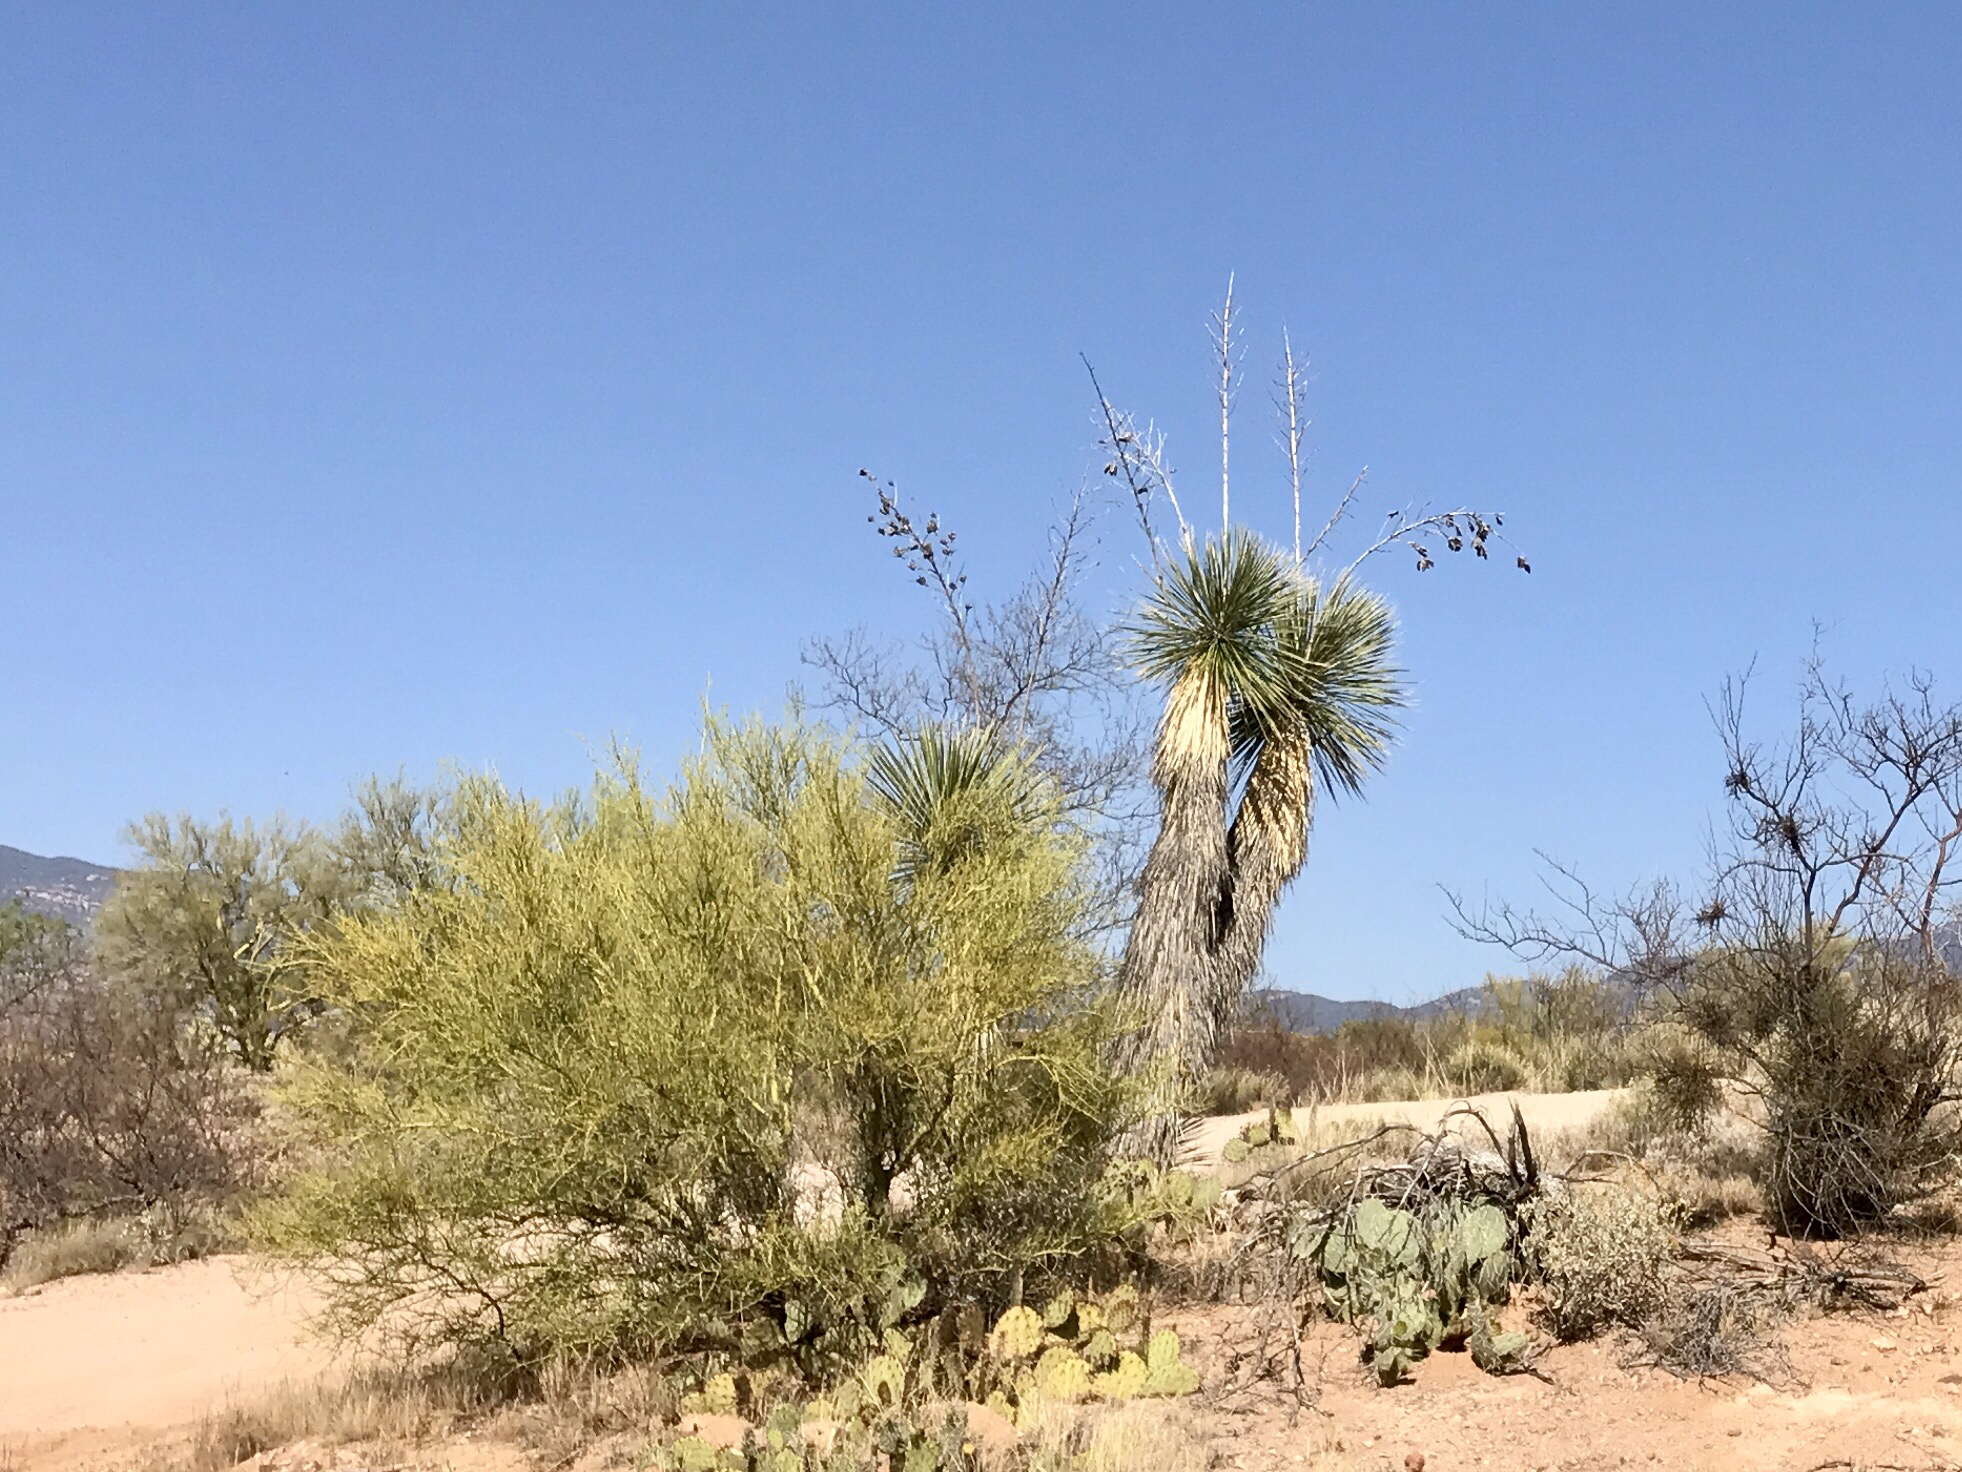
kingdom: Plantae
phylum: Tracheophyta
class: Magnoliopsida
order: Fabales
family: Fabaceae
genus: Parkinsonia
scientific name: Parkinsonia microphylla
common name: Yellow paloverde
